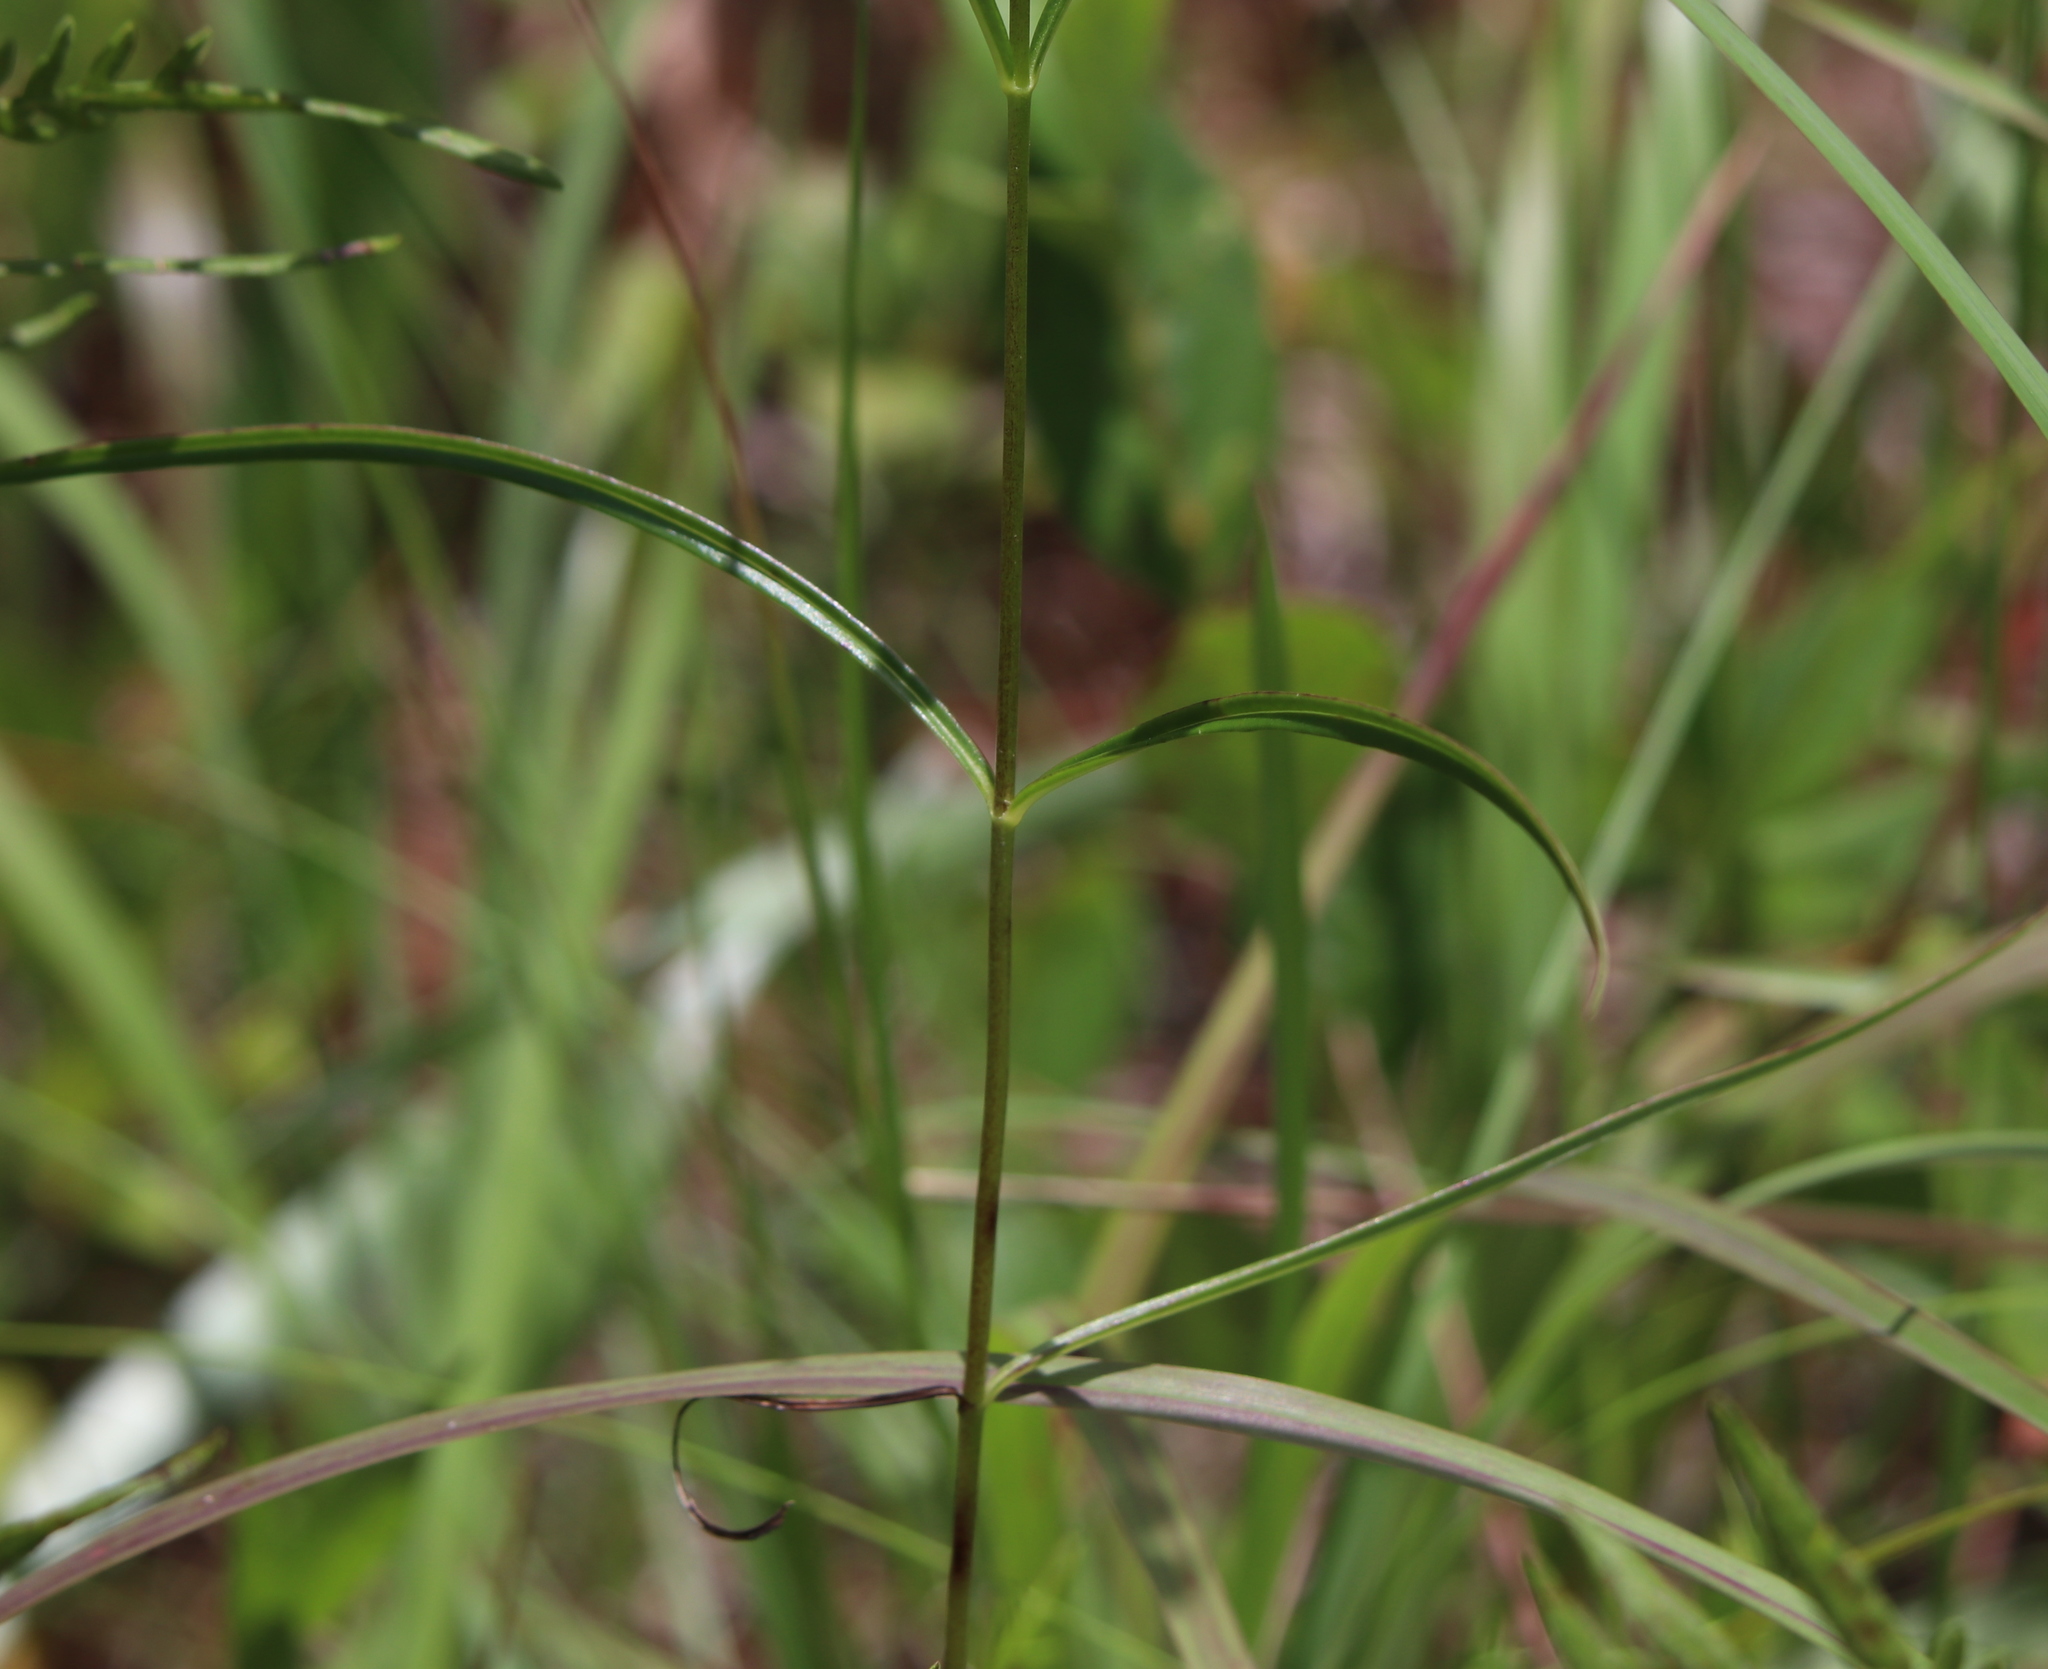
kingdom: Plantae
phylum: Tracheophyta
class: Magnoliopsida
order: Ericales
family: Polemoniaceae
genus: Phlox
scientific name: Phlox carolina
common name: Thick-leaf phlox
